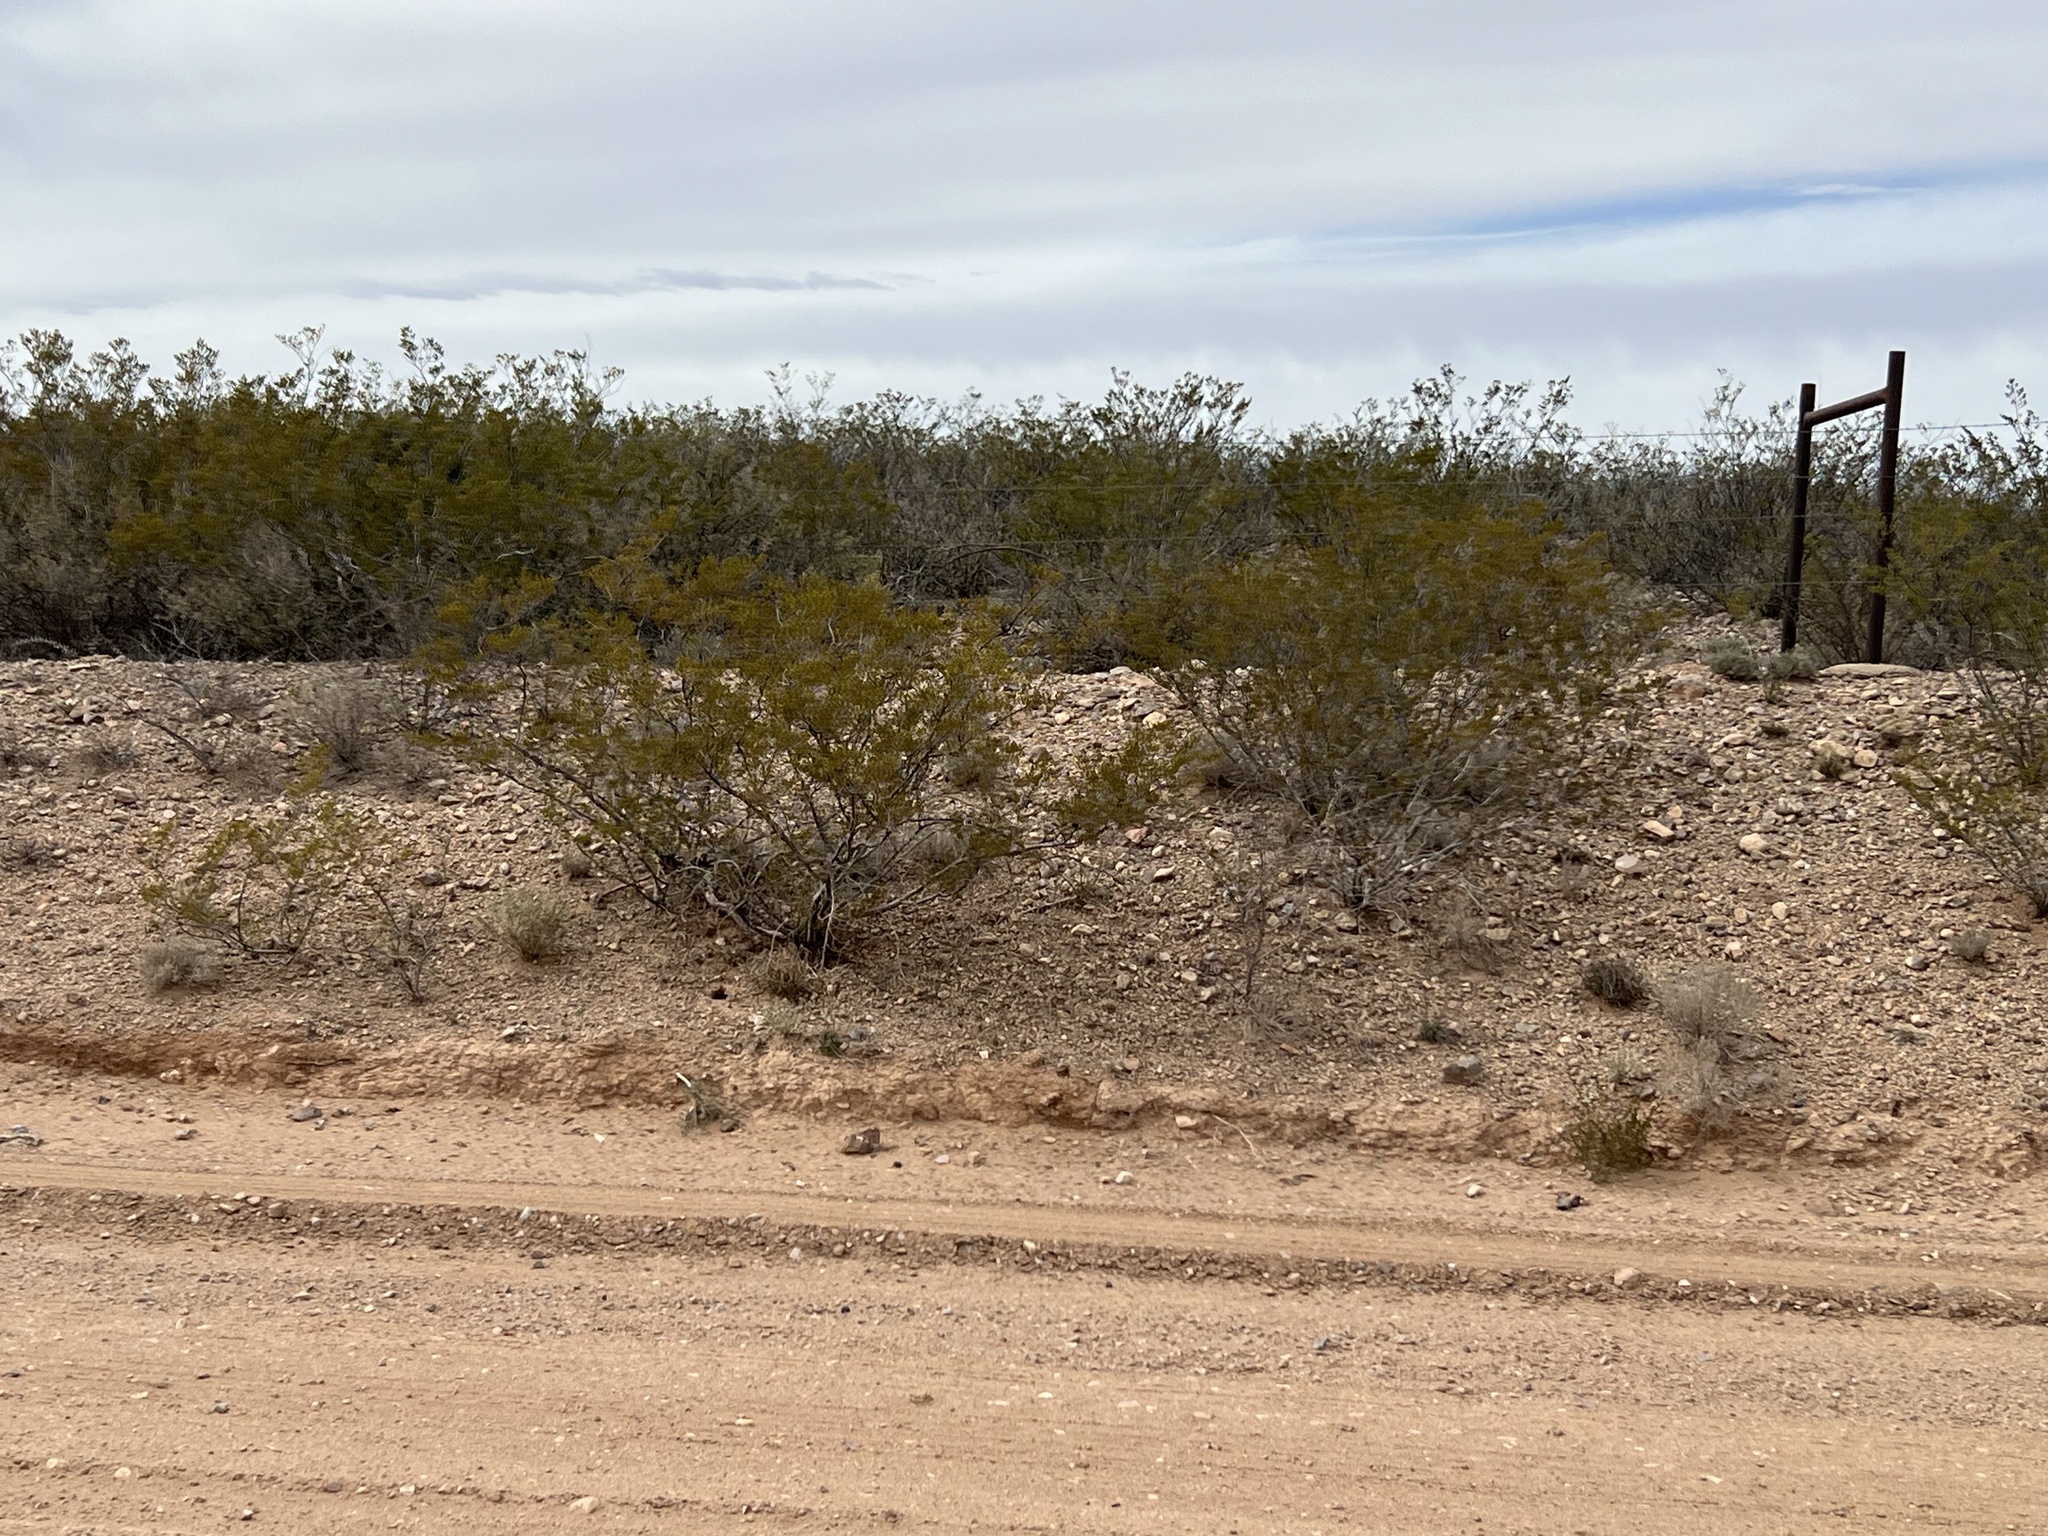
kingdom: Plantae
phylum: Tracheophyta
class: Magnoliopsida
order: Zygophyllales
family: Zygophyllaceae
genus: Larrea
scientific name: Larrea tridentata
